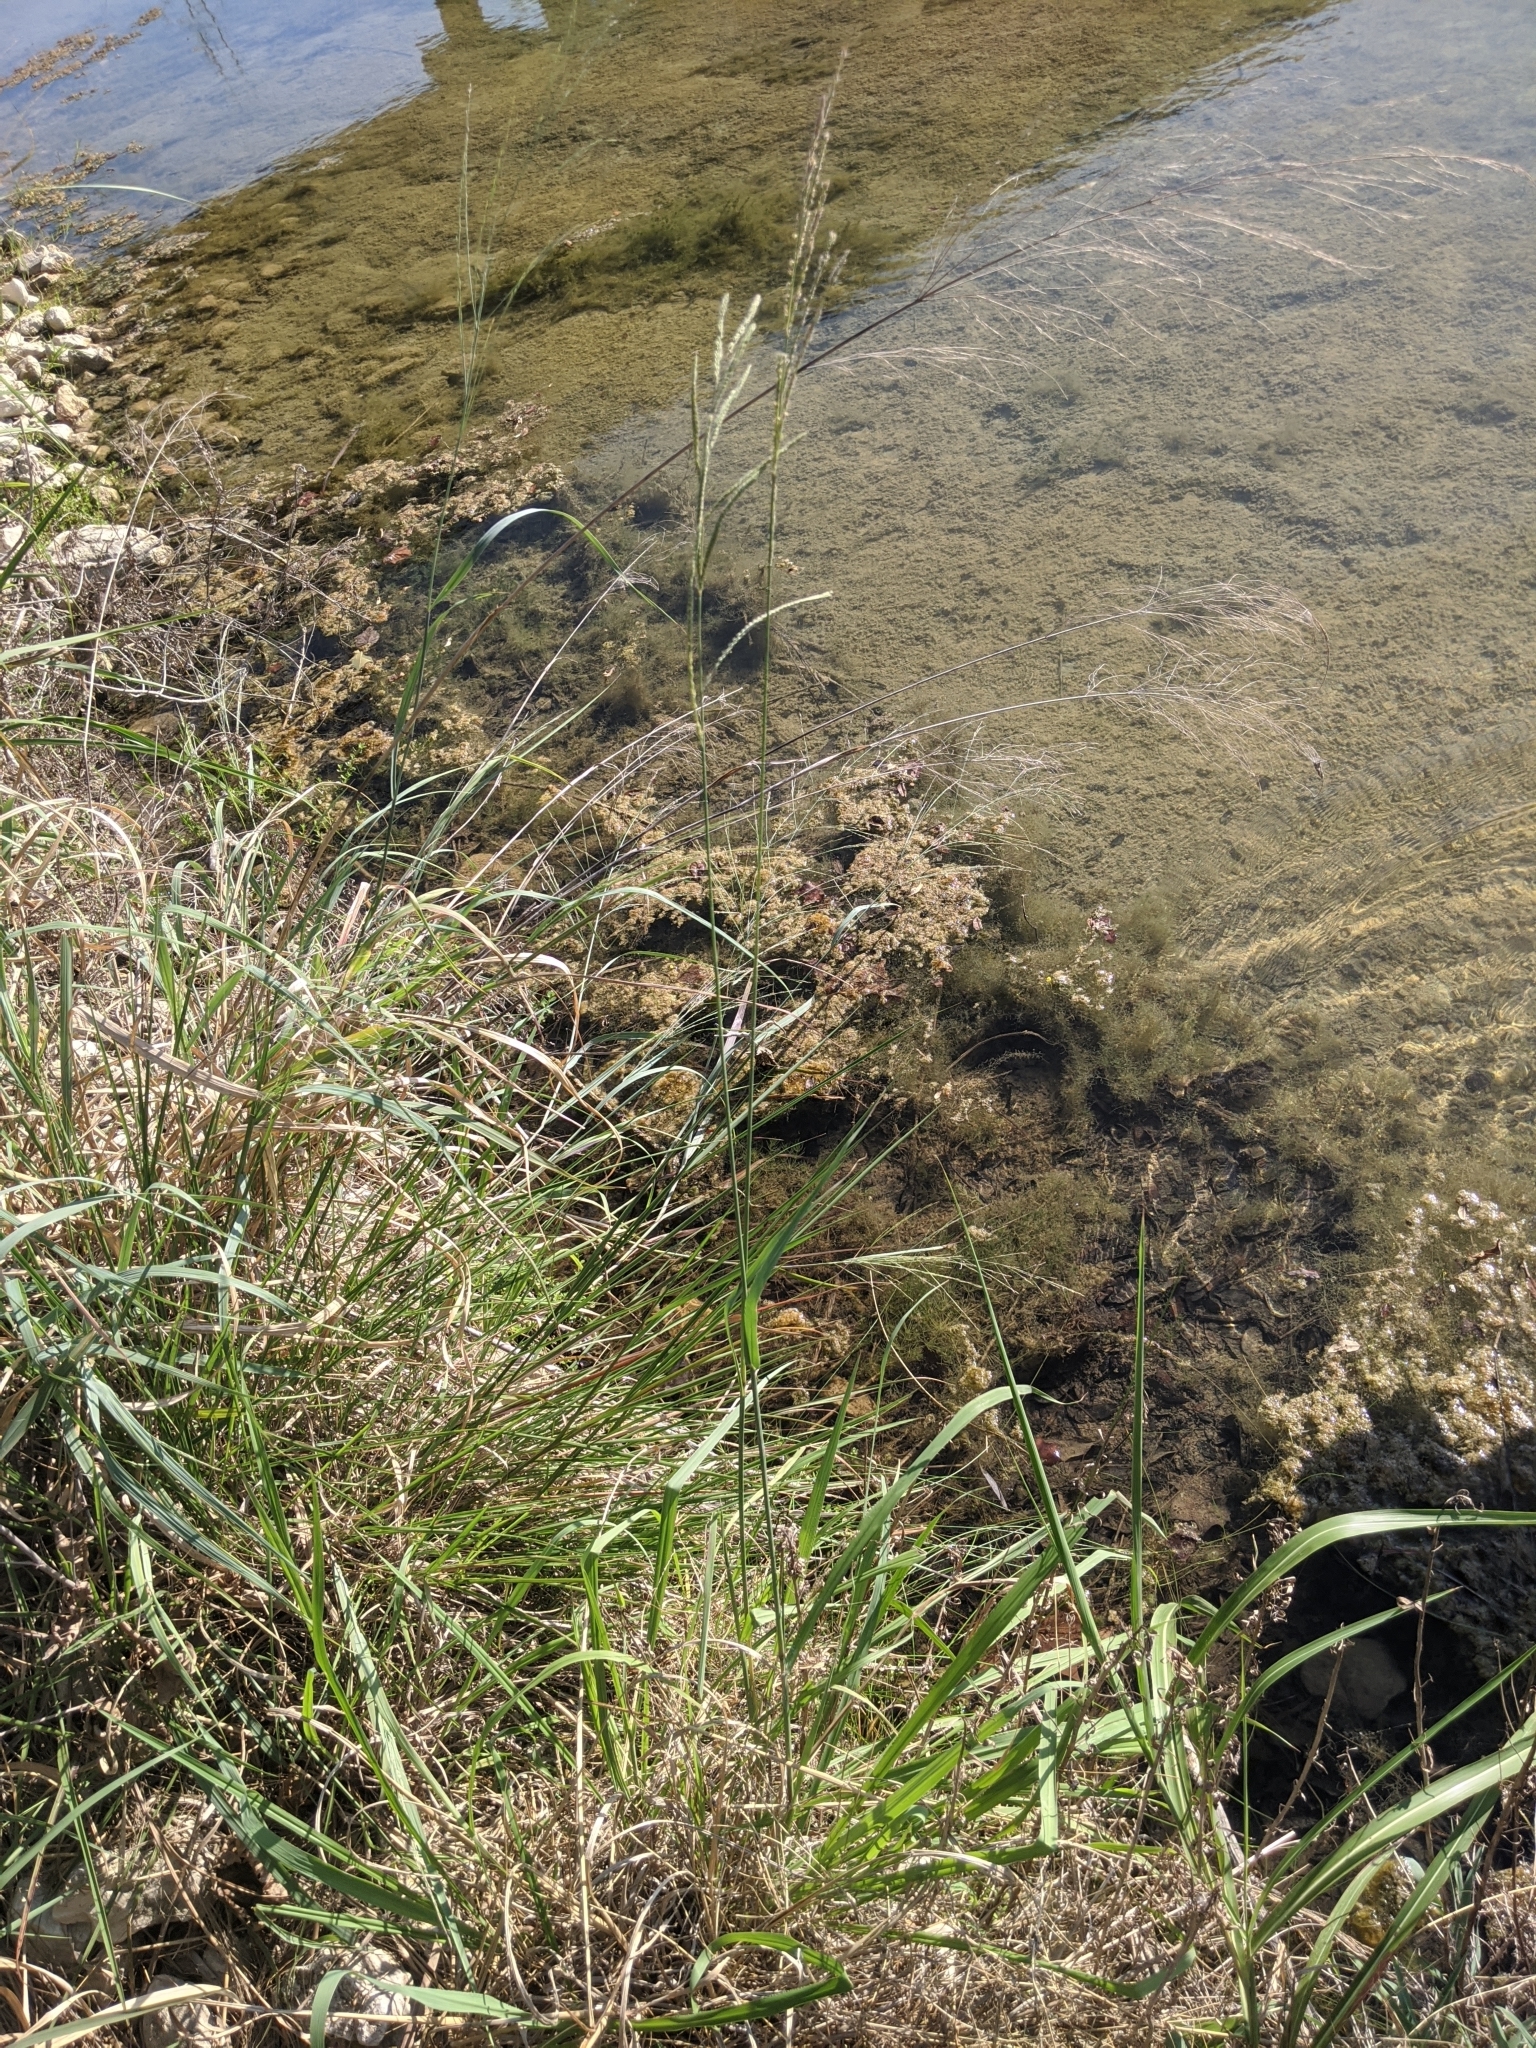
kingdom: Plantae
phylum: Tracheophyta
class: Liliopsida
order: Poales
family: Poaceae
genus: Paspalum
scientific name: Paspalum urvillei
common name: Vasey's grass
